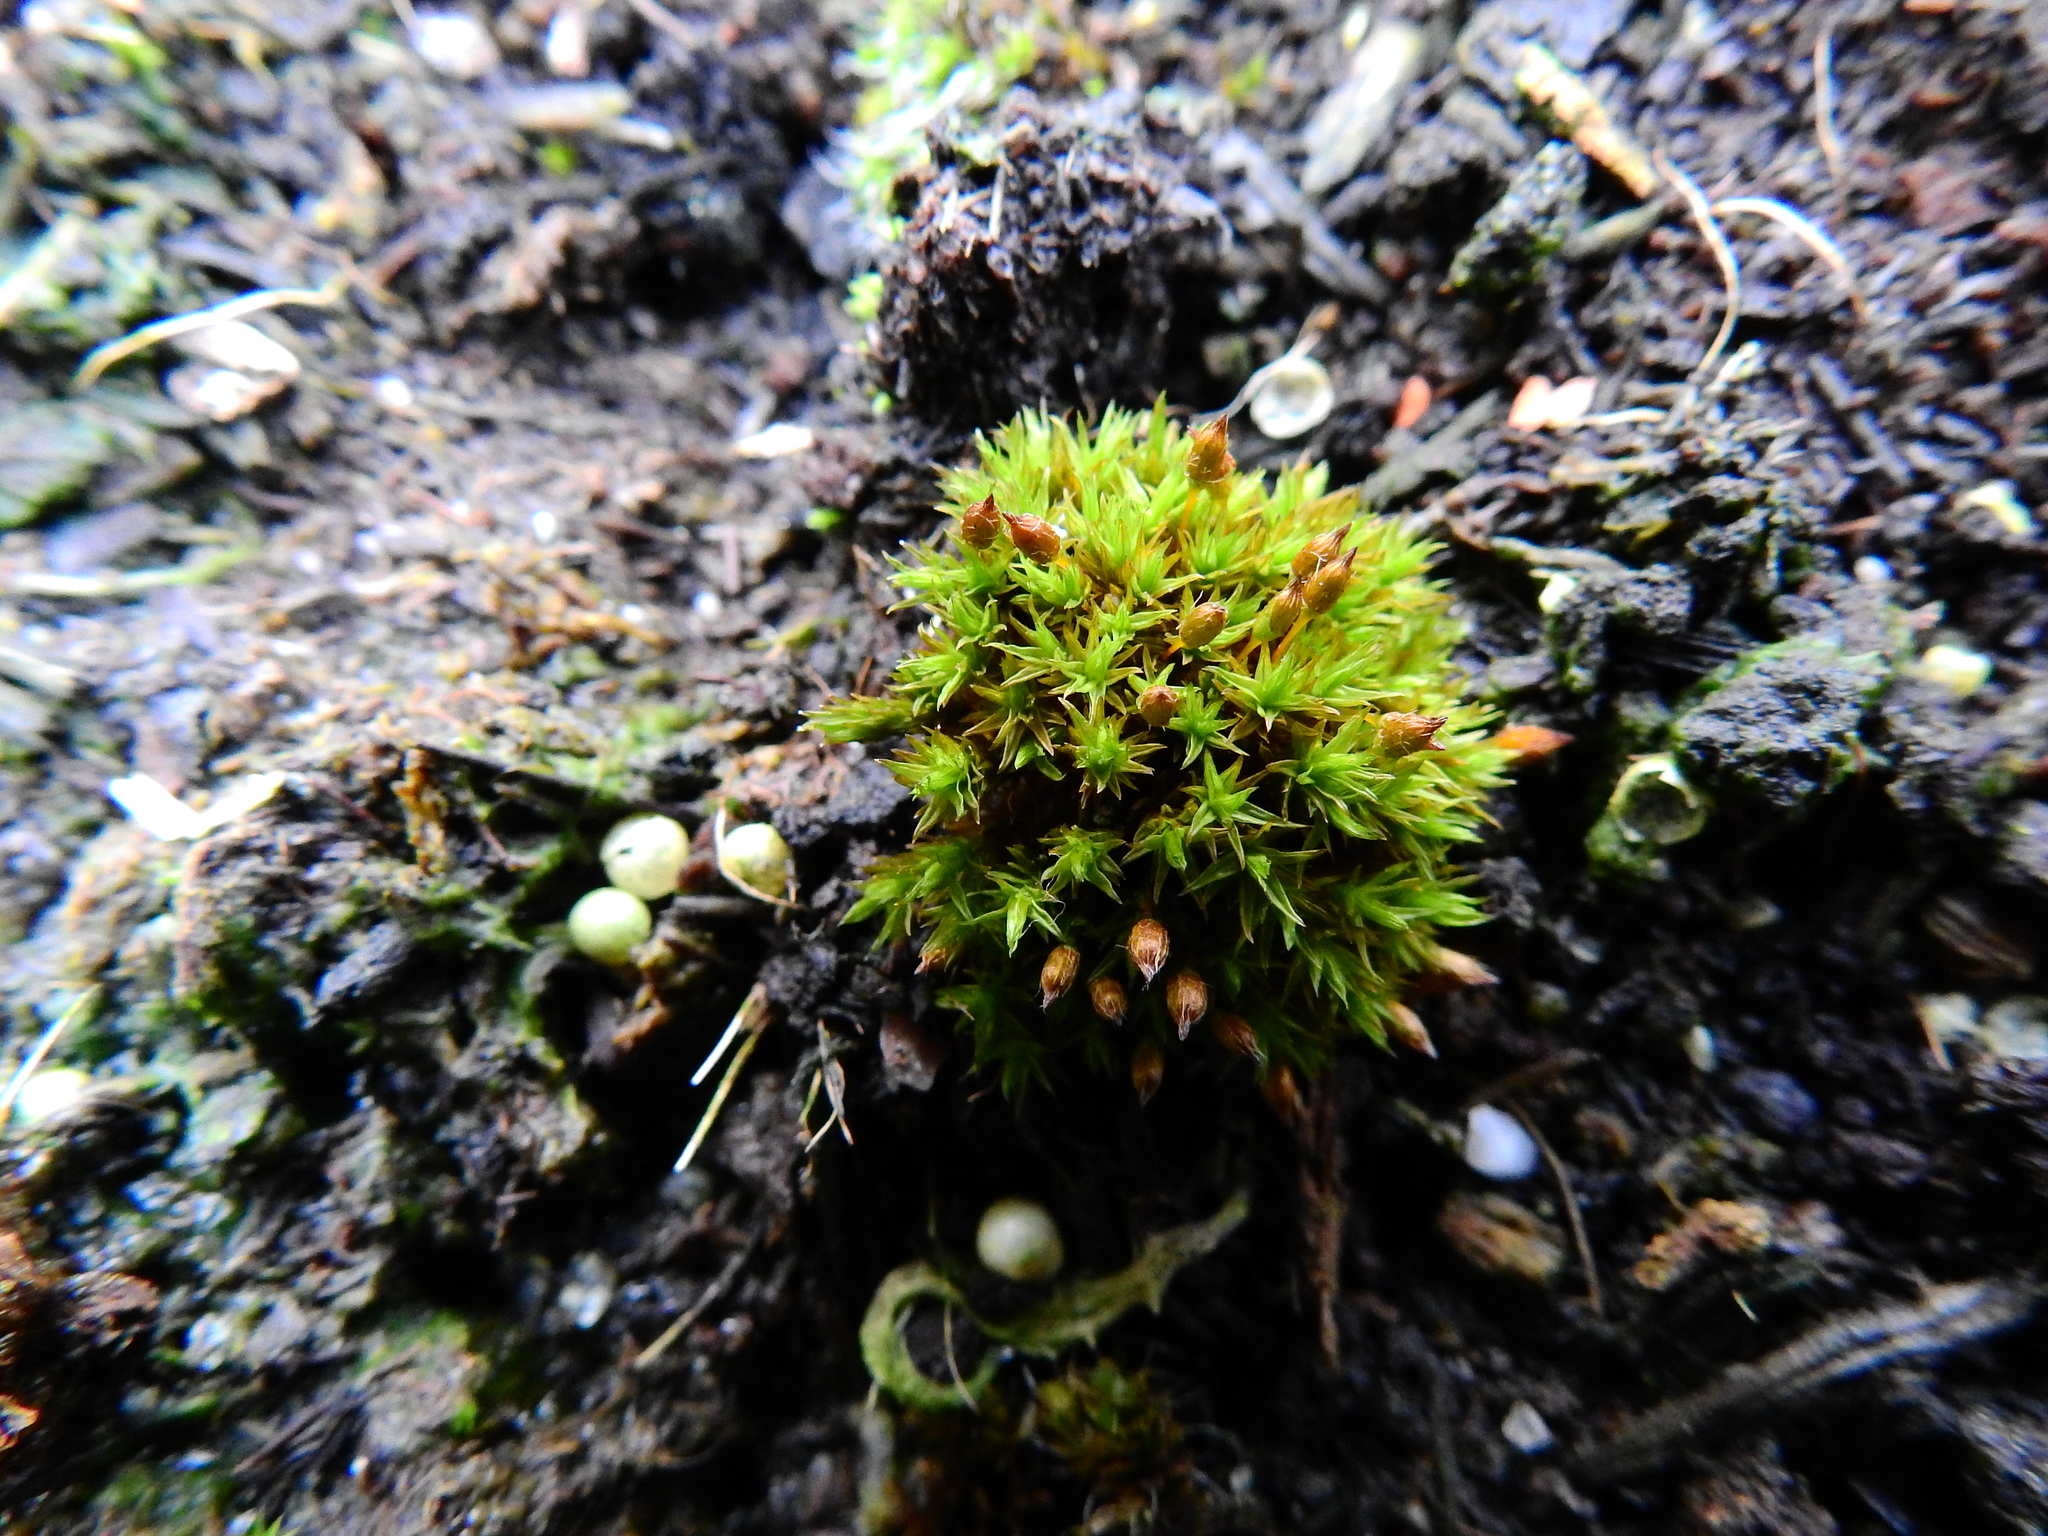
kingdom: Plantae
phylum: Bryophyta
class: Bryopsida
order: Orthotrichales
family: Orthotrichaceae
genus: Orthotrichum
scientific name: Orthotrichum anomalum
